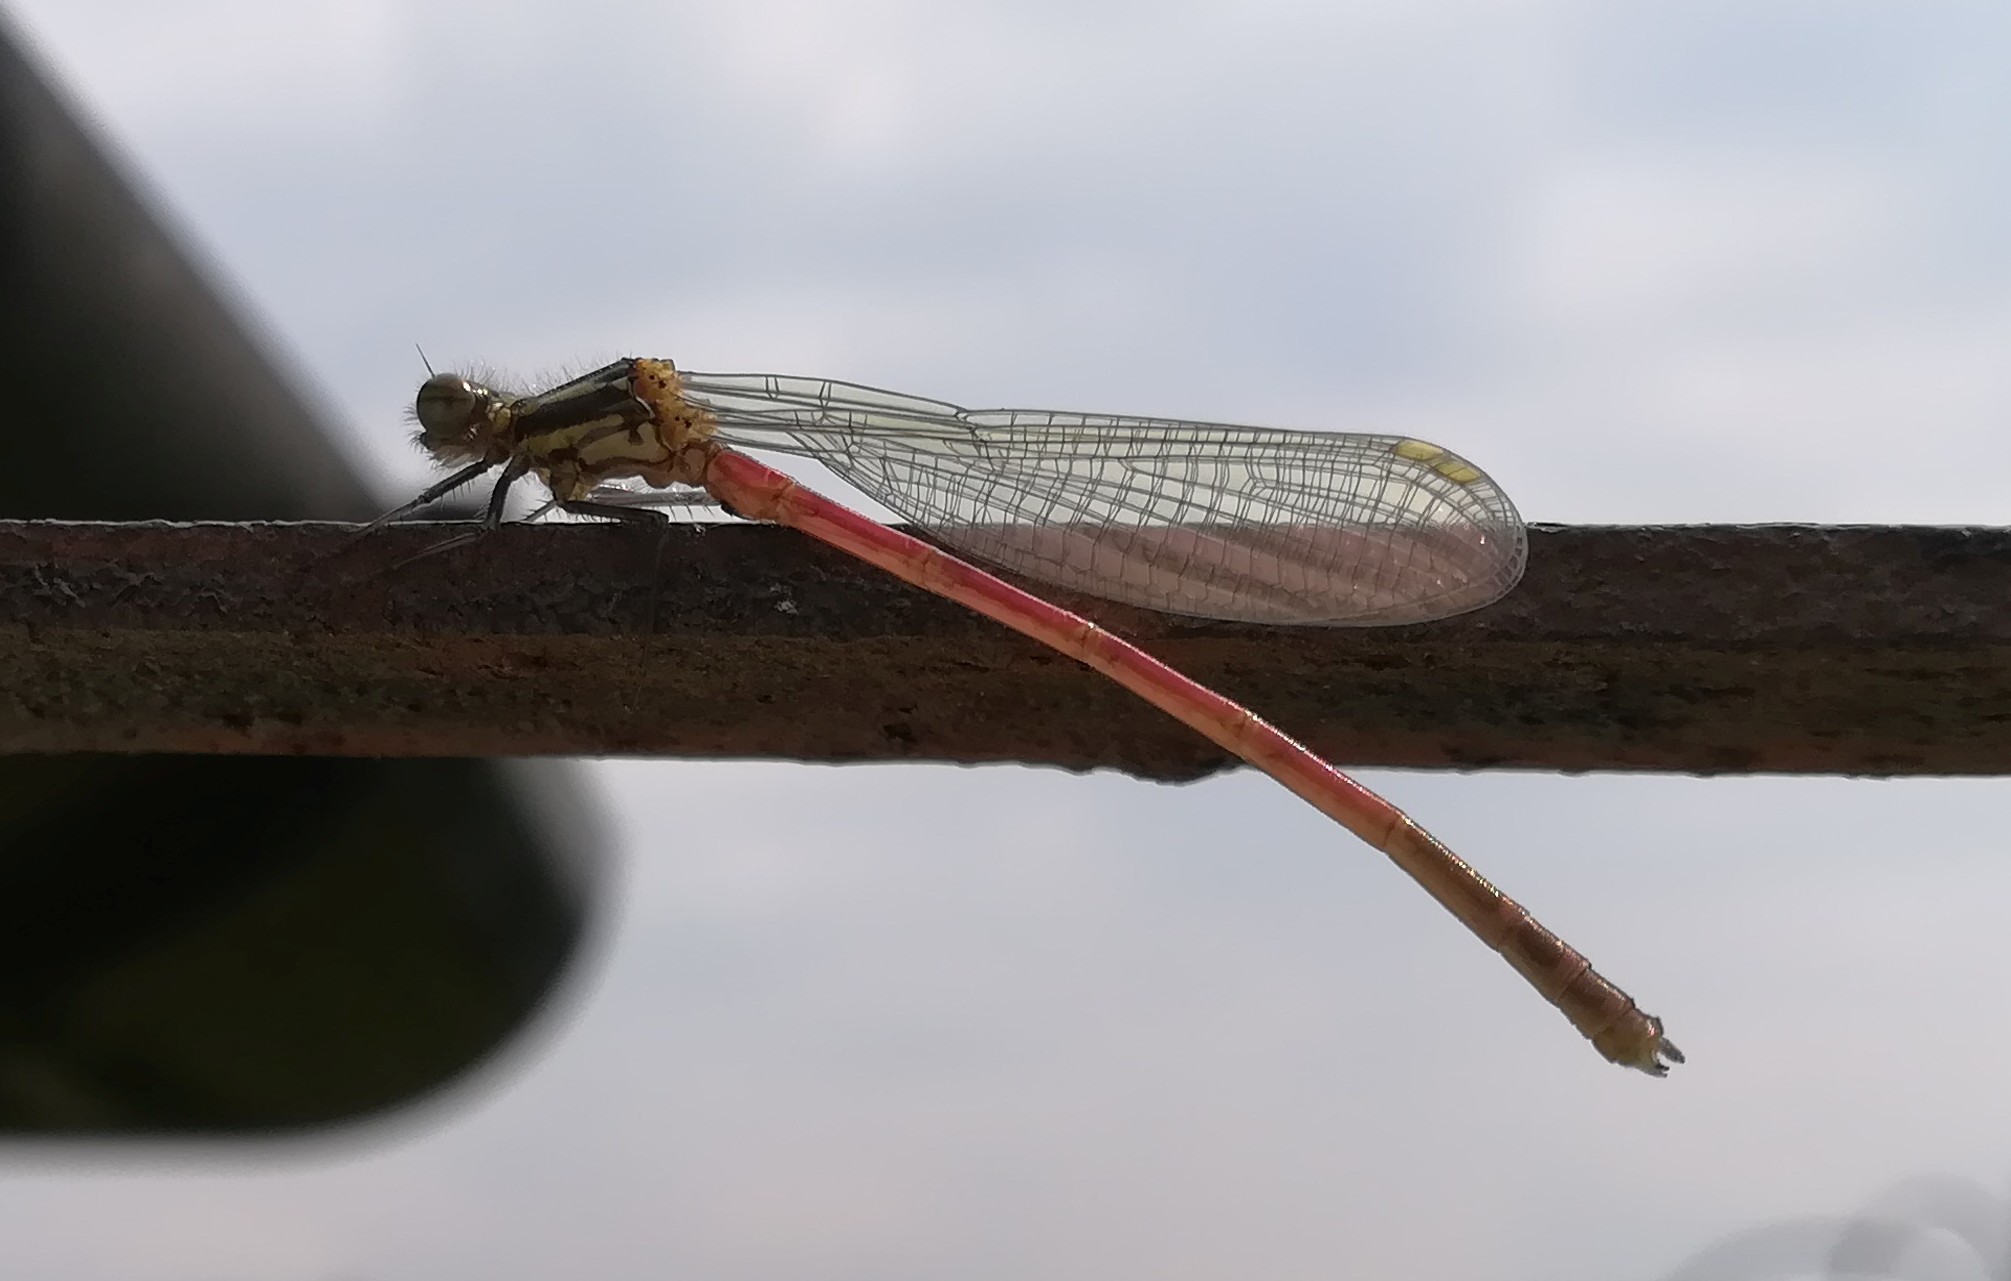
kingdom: Animalia
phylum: Arthropoda
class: Insecta
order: Odonata
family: Coenagrionidae
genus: Pyrrhosoma
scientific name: Pyrrhosoma nymphula
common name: Large red damsel
